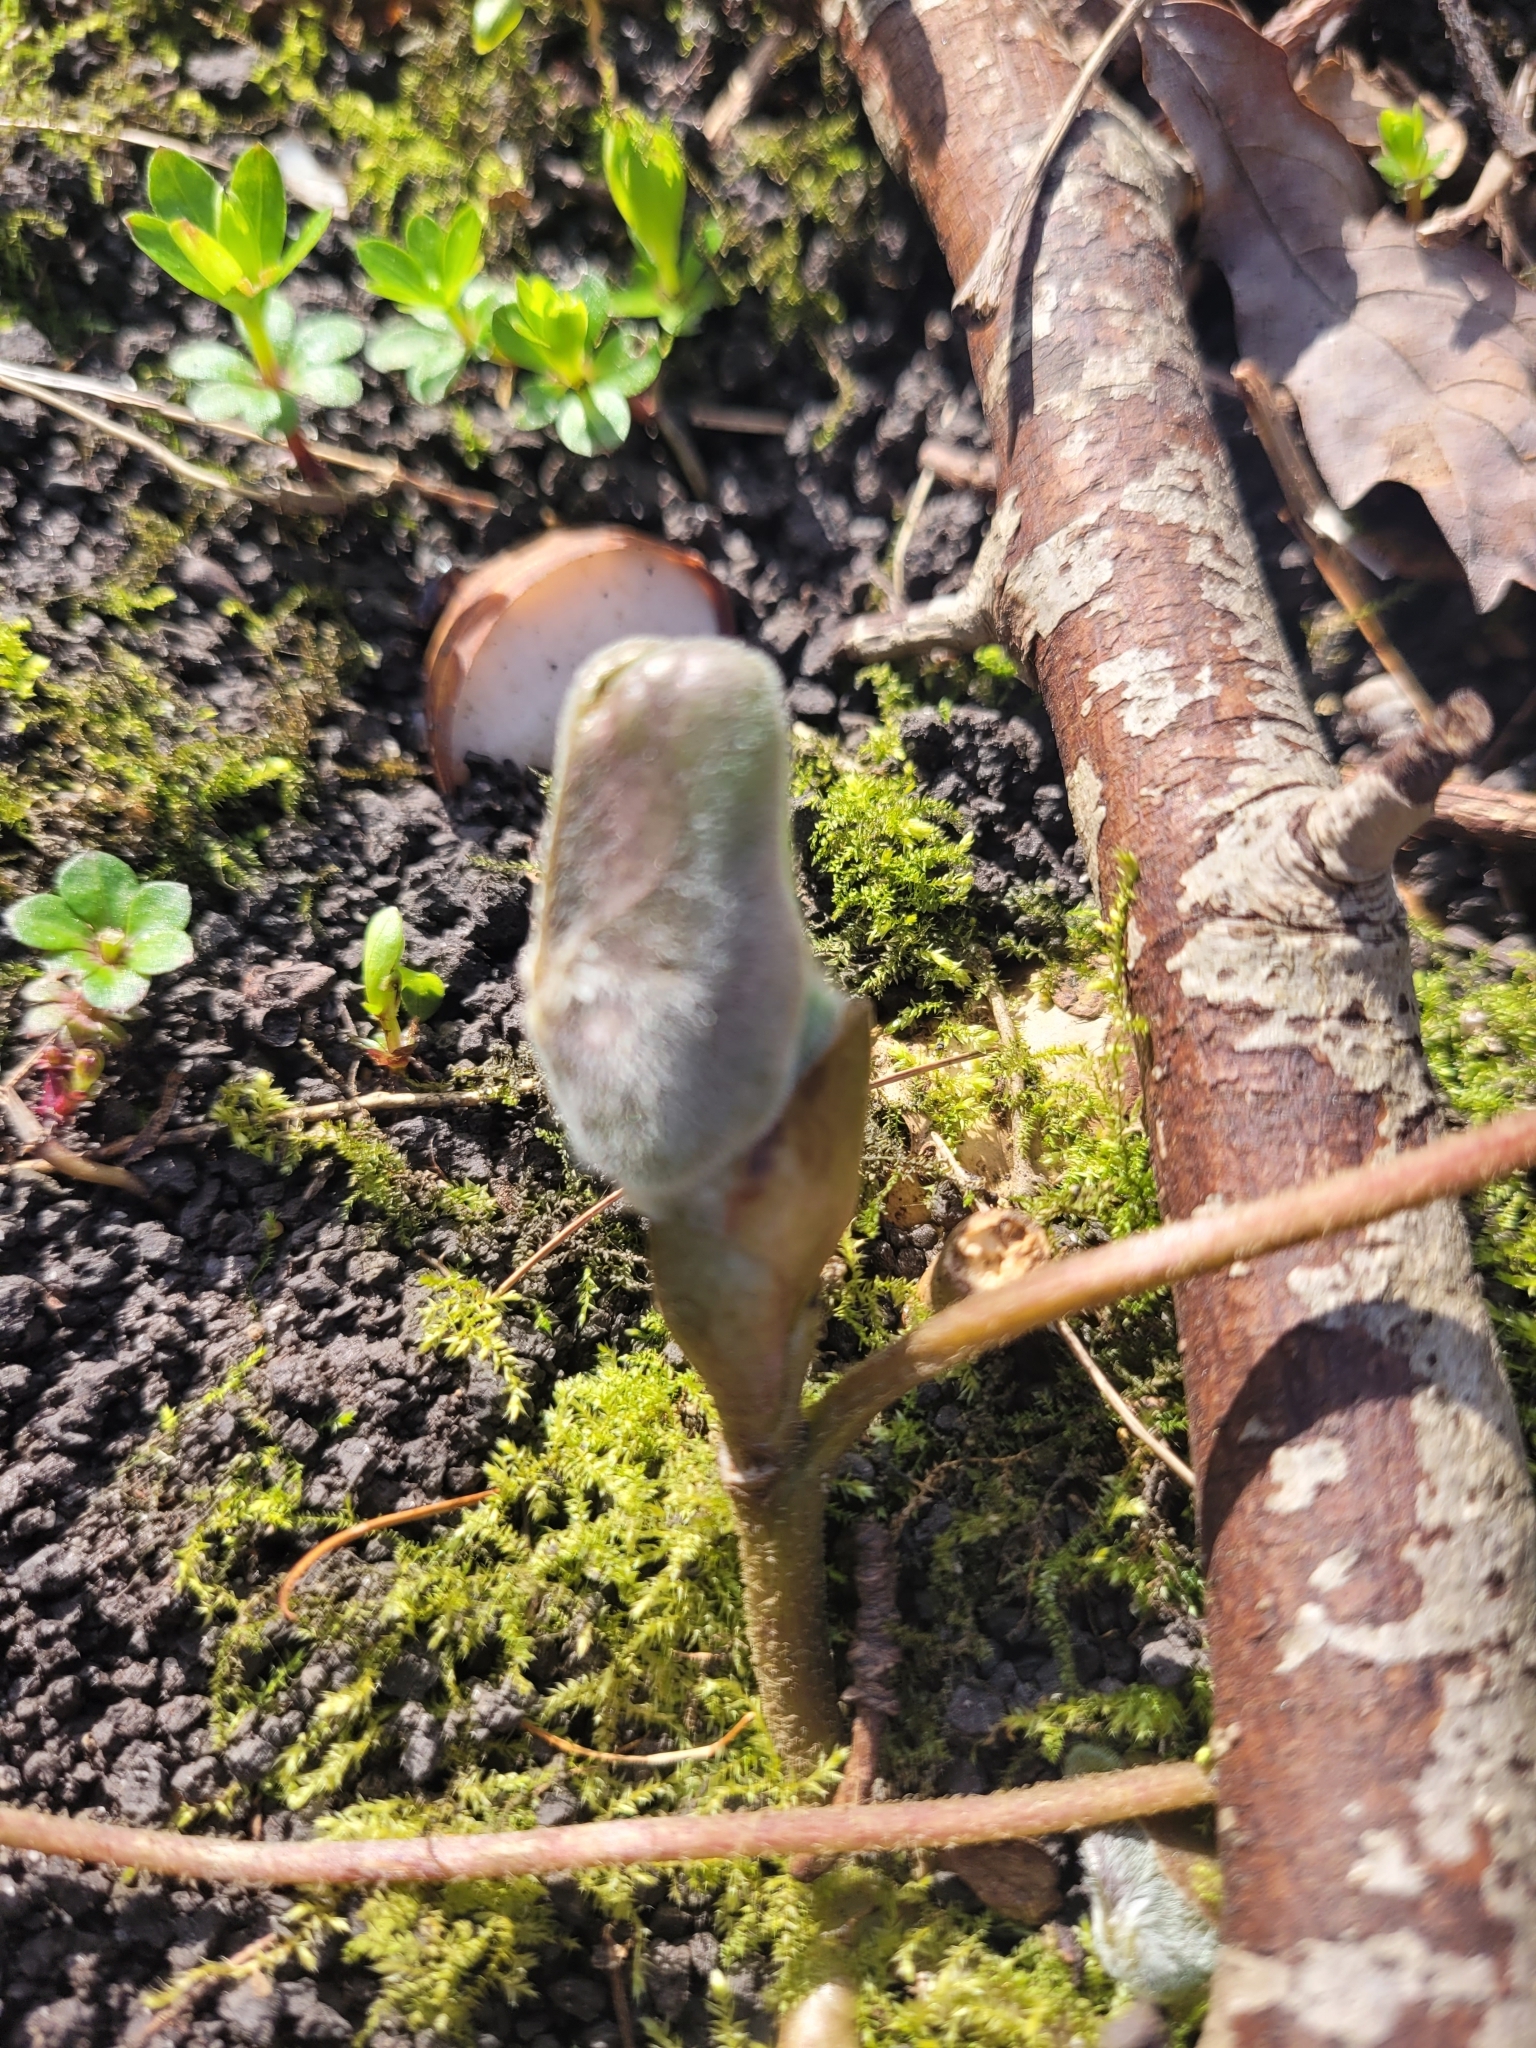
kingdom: Plantae
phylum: Tracheophyta
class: Magnoliopsida
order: Piperales
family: Aristolochiaceae
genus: Asarum
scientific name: Asarum europaeum
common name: Asarabacca
